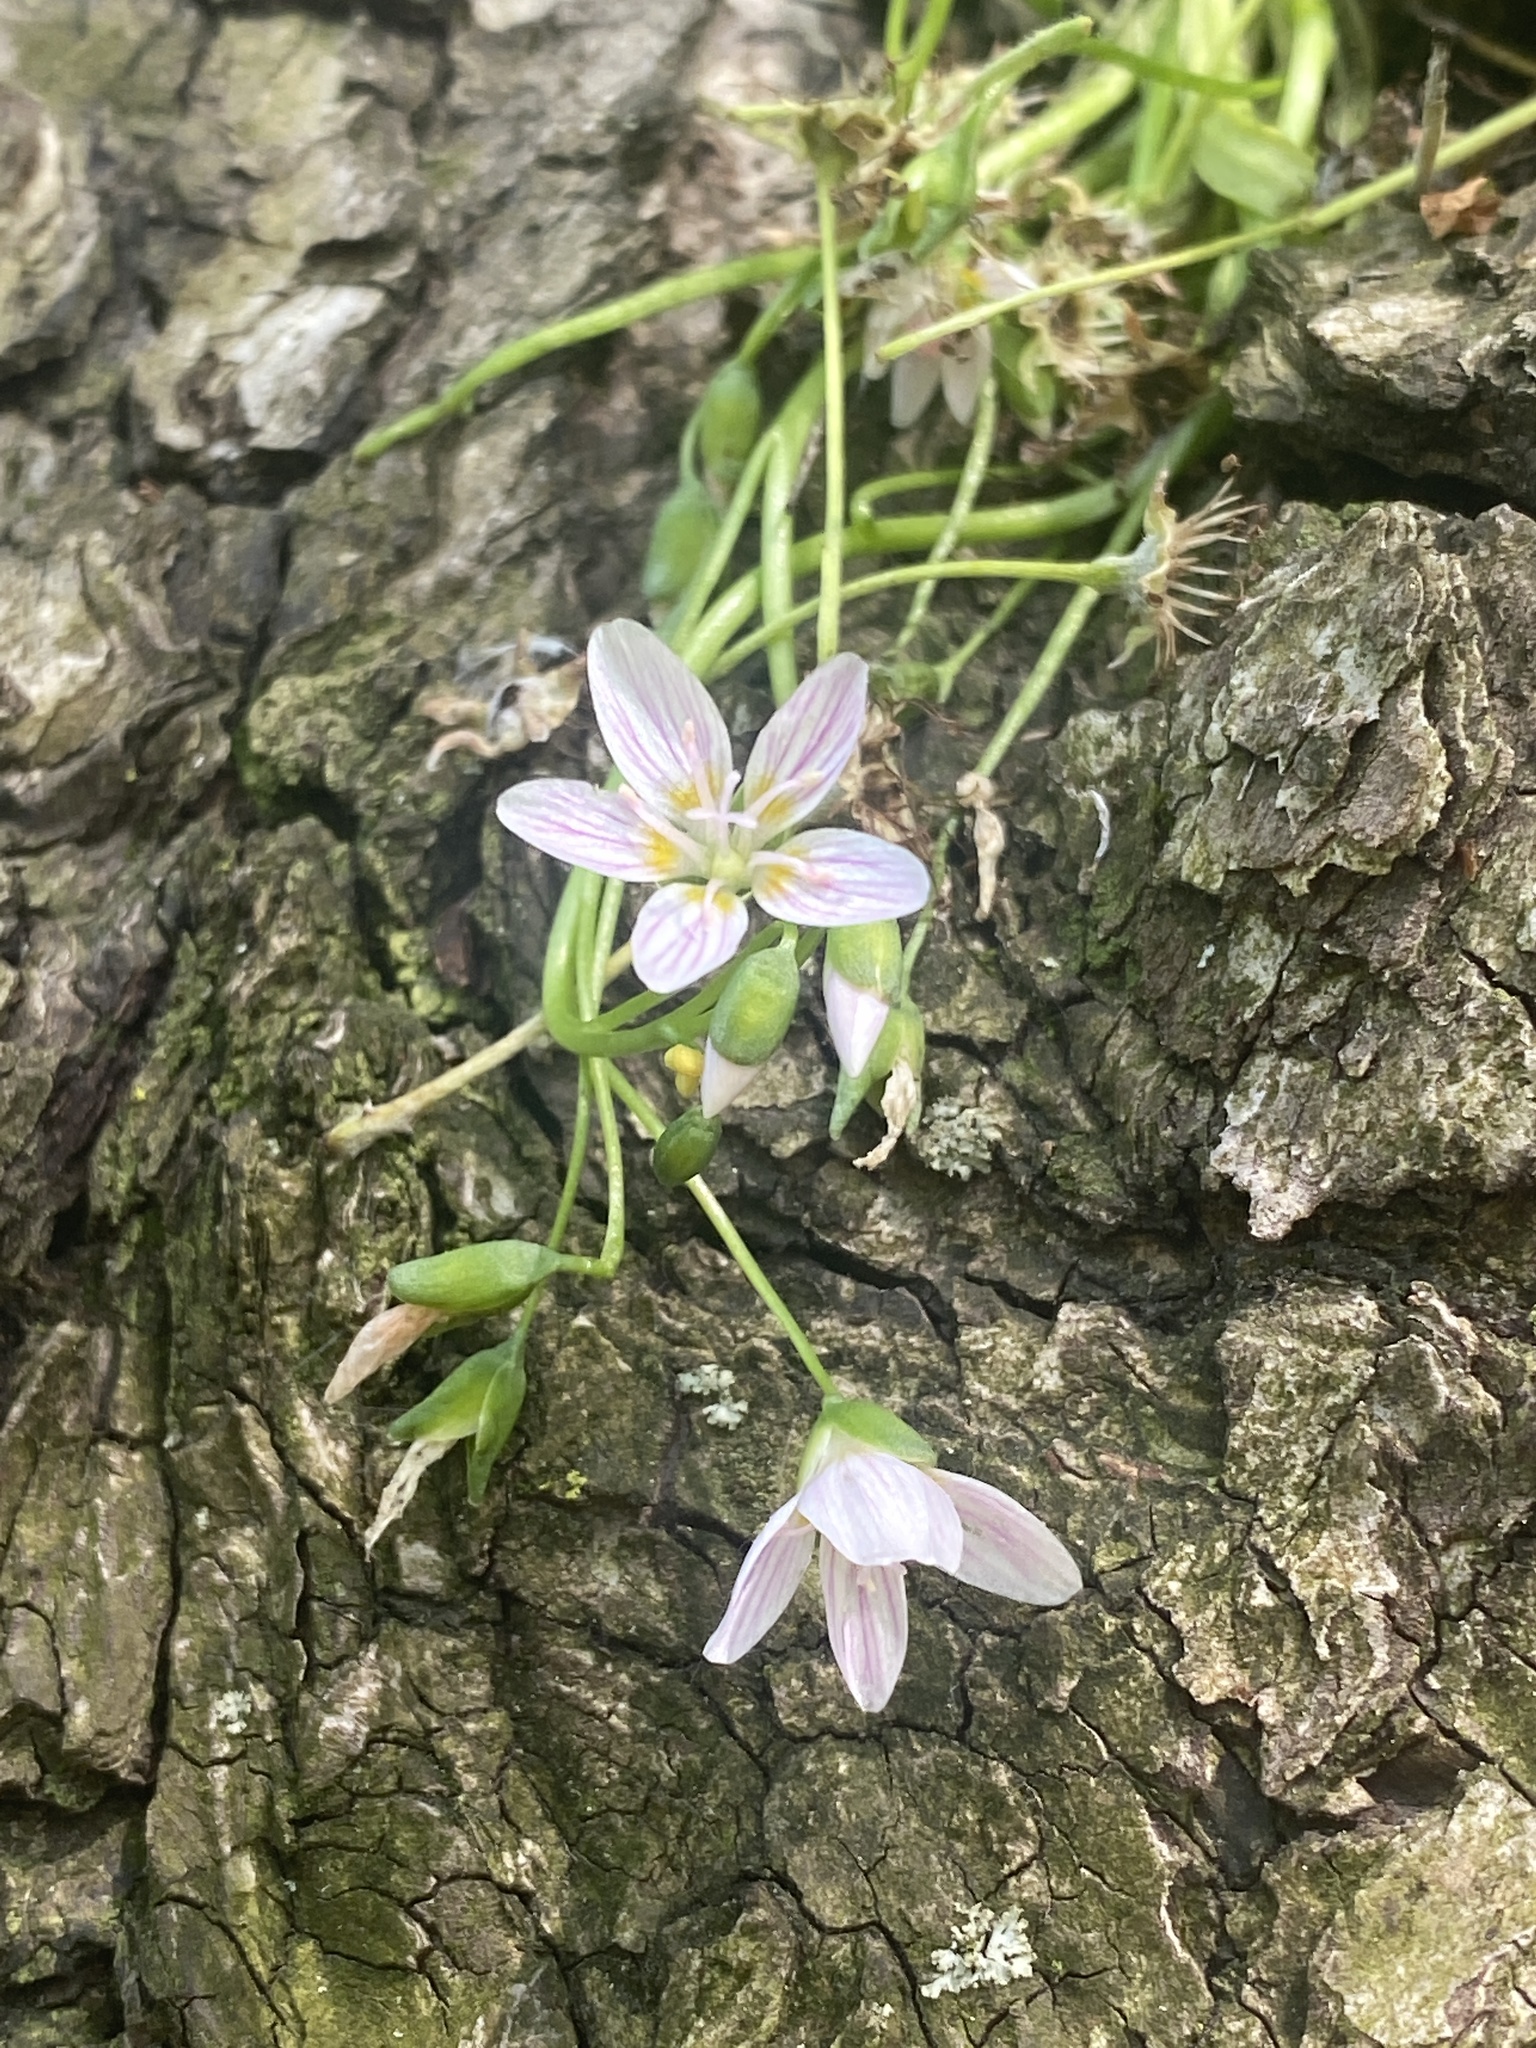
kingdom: Plantae
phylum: Tracheophyta
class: Magnoliopsida
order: Caryophyllales
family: Montiaceae
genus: Claytonia
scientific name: Claytonia virginica
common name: Virginia springbeauty
